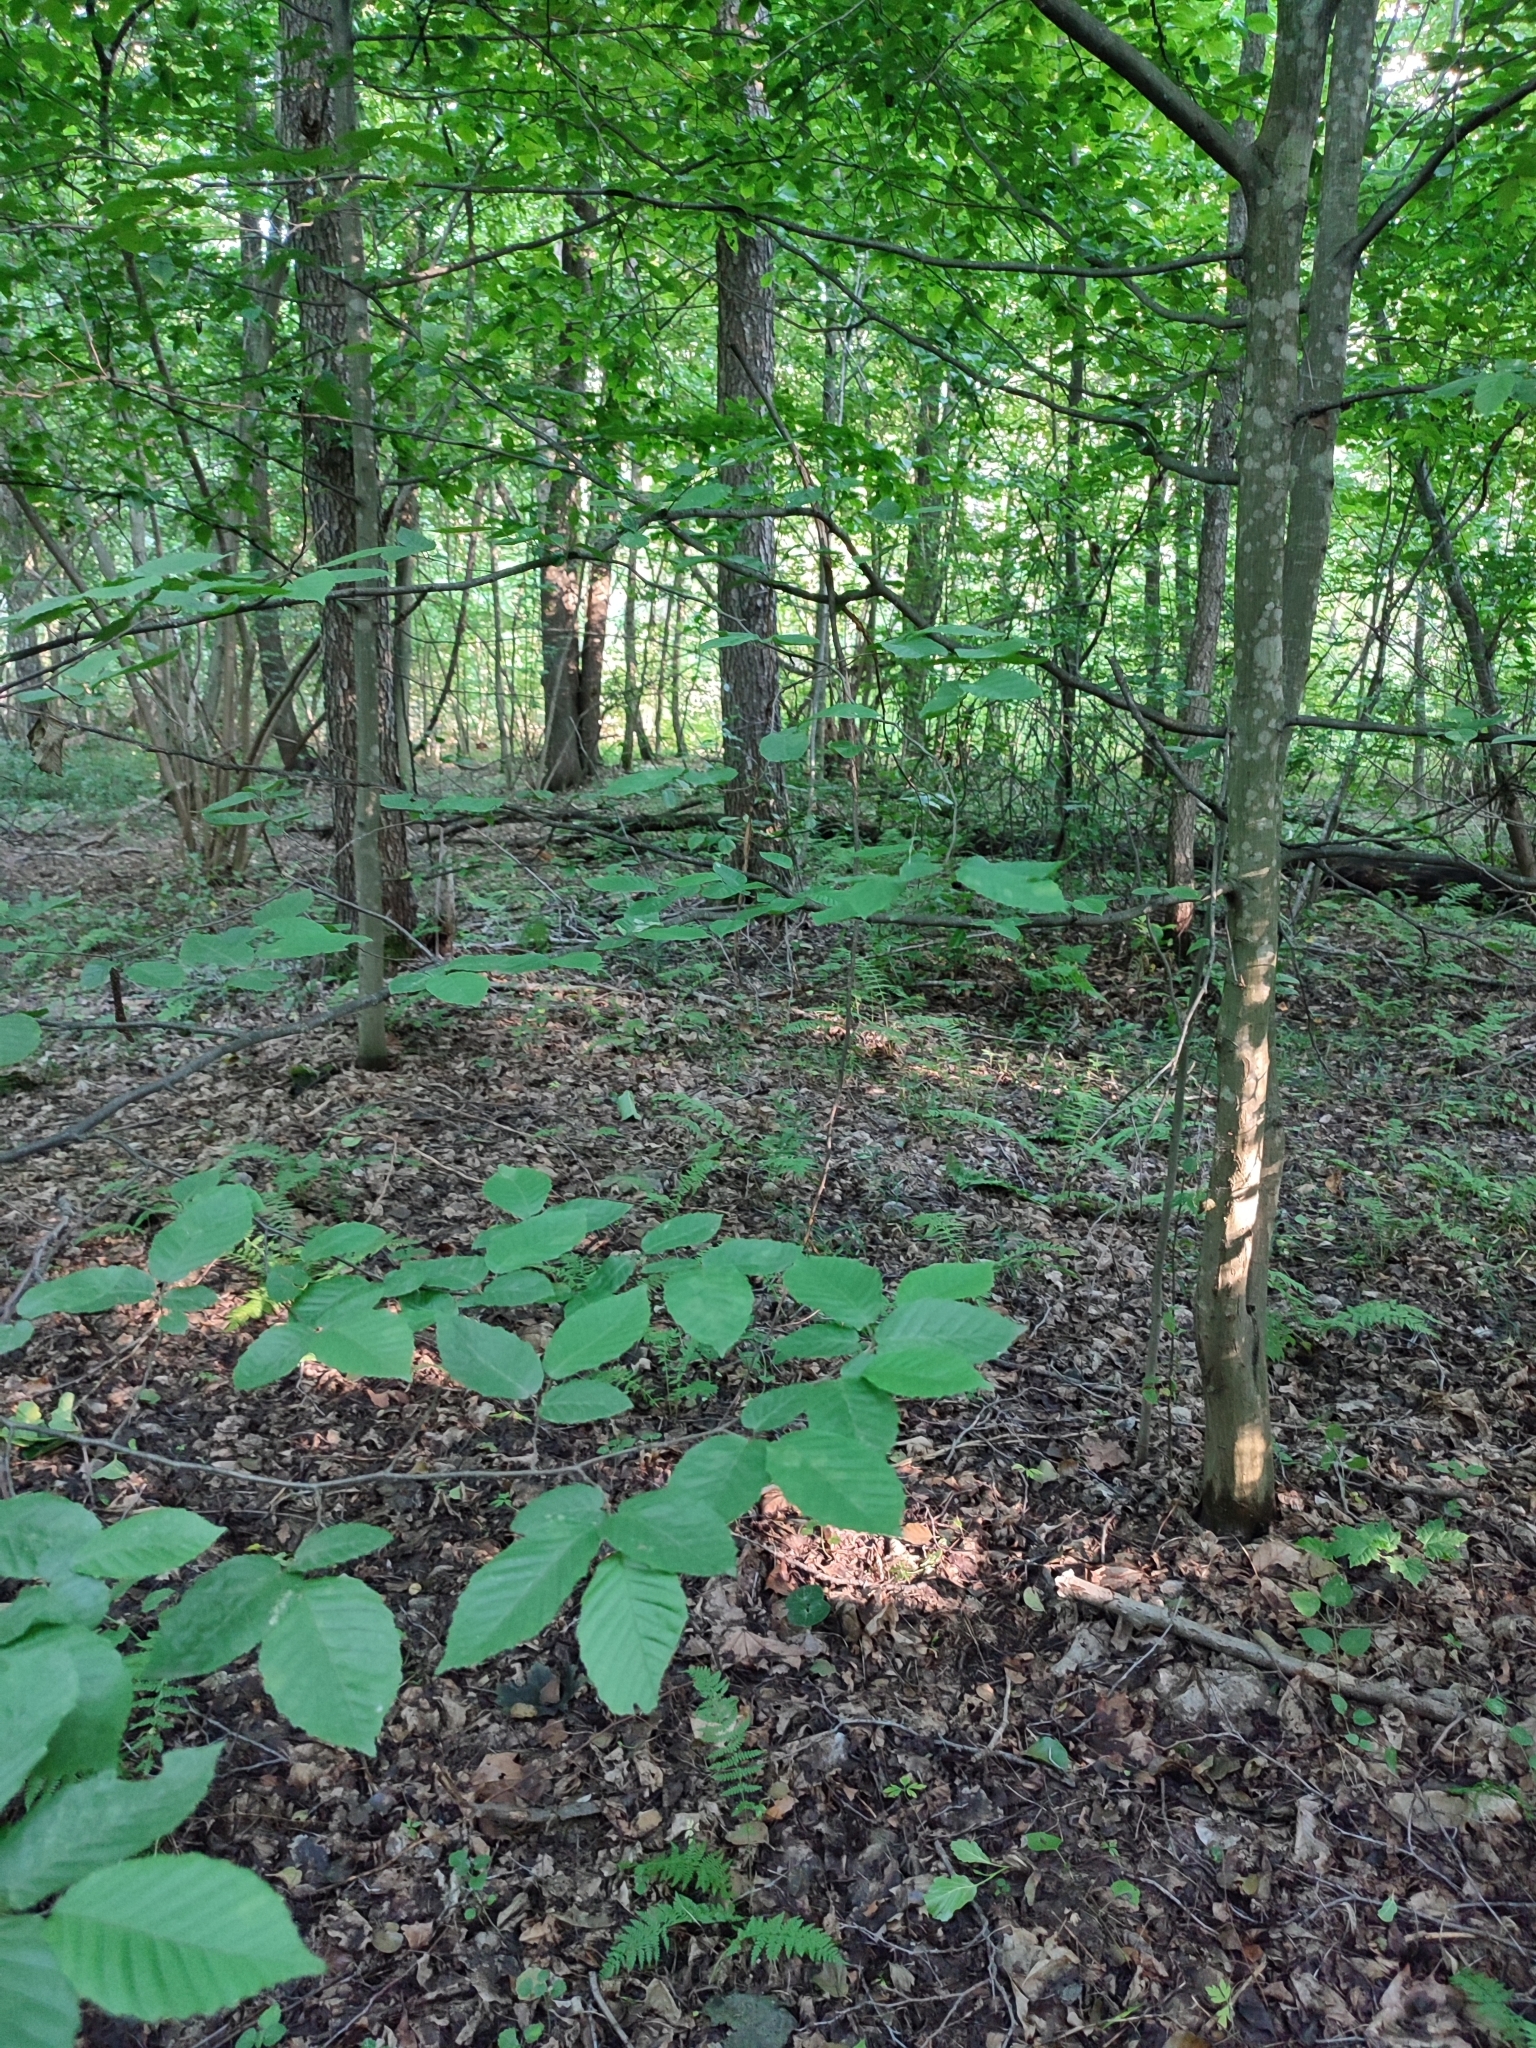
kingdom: Plantae
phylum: Tracheophyta
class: Magnoliopsida
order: Fagales
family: Betulaceae
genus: Carpinus
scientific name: Carpinus betulus
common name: Hornbeam
